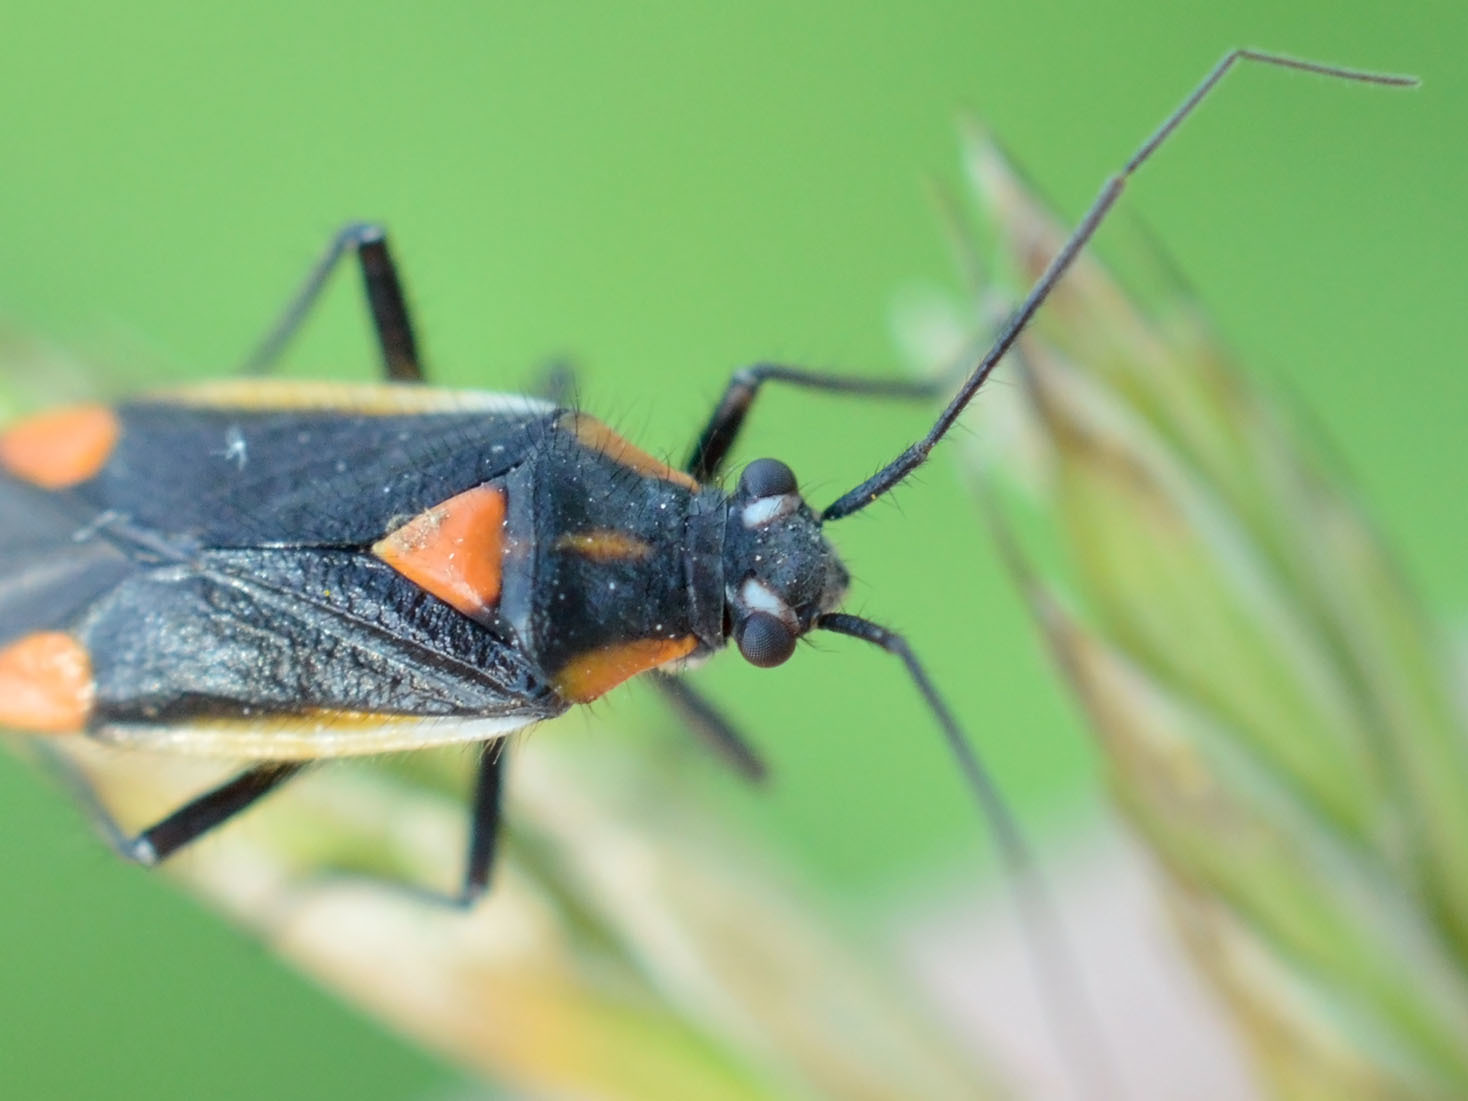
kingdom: Animalia
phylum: Arthropoda
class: Insecta
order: Hemiptera
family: Miridae
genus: Capsodes
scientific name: Capsodes gothicus
